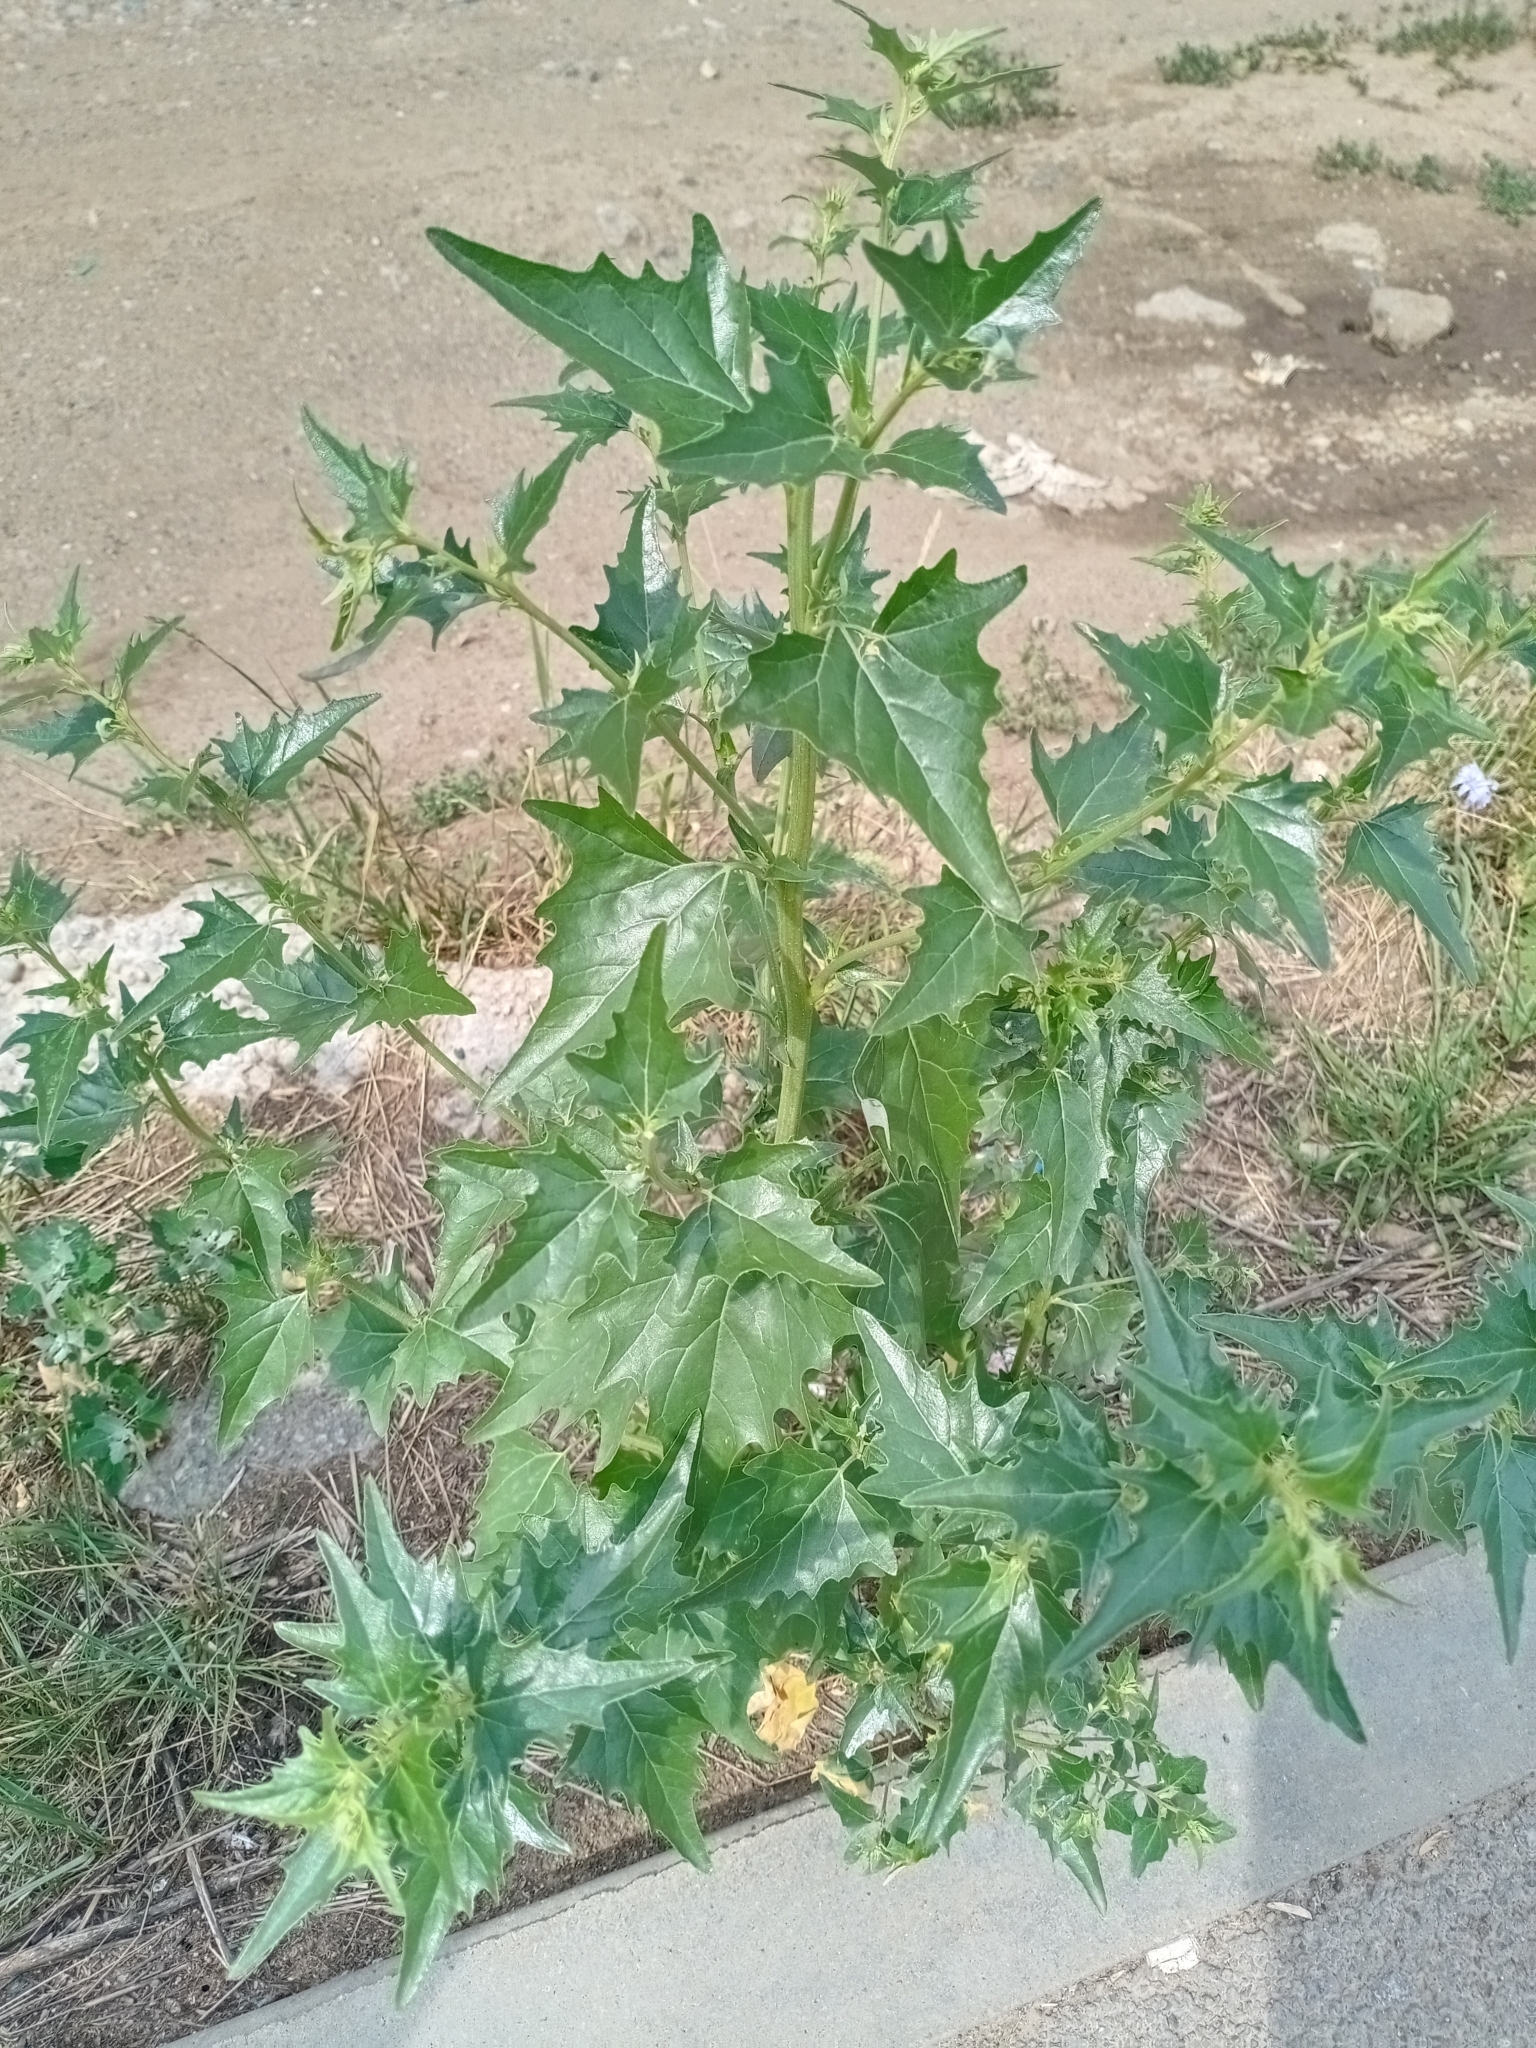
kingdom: Plantae
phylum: Tracheophyta
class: Magnoliopsida
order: Caryophyllales
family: Amaranthaceae
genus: Atriplex
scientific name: Atriplex sagittata
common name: Purple orache
